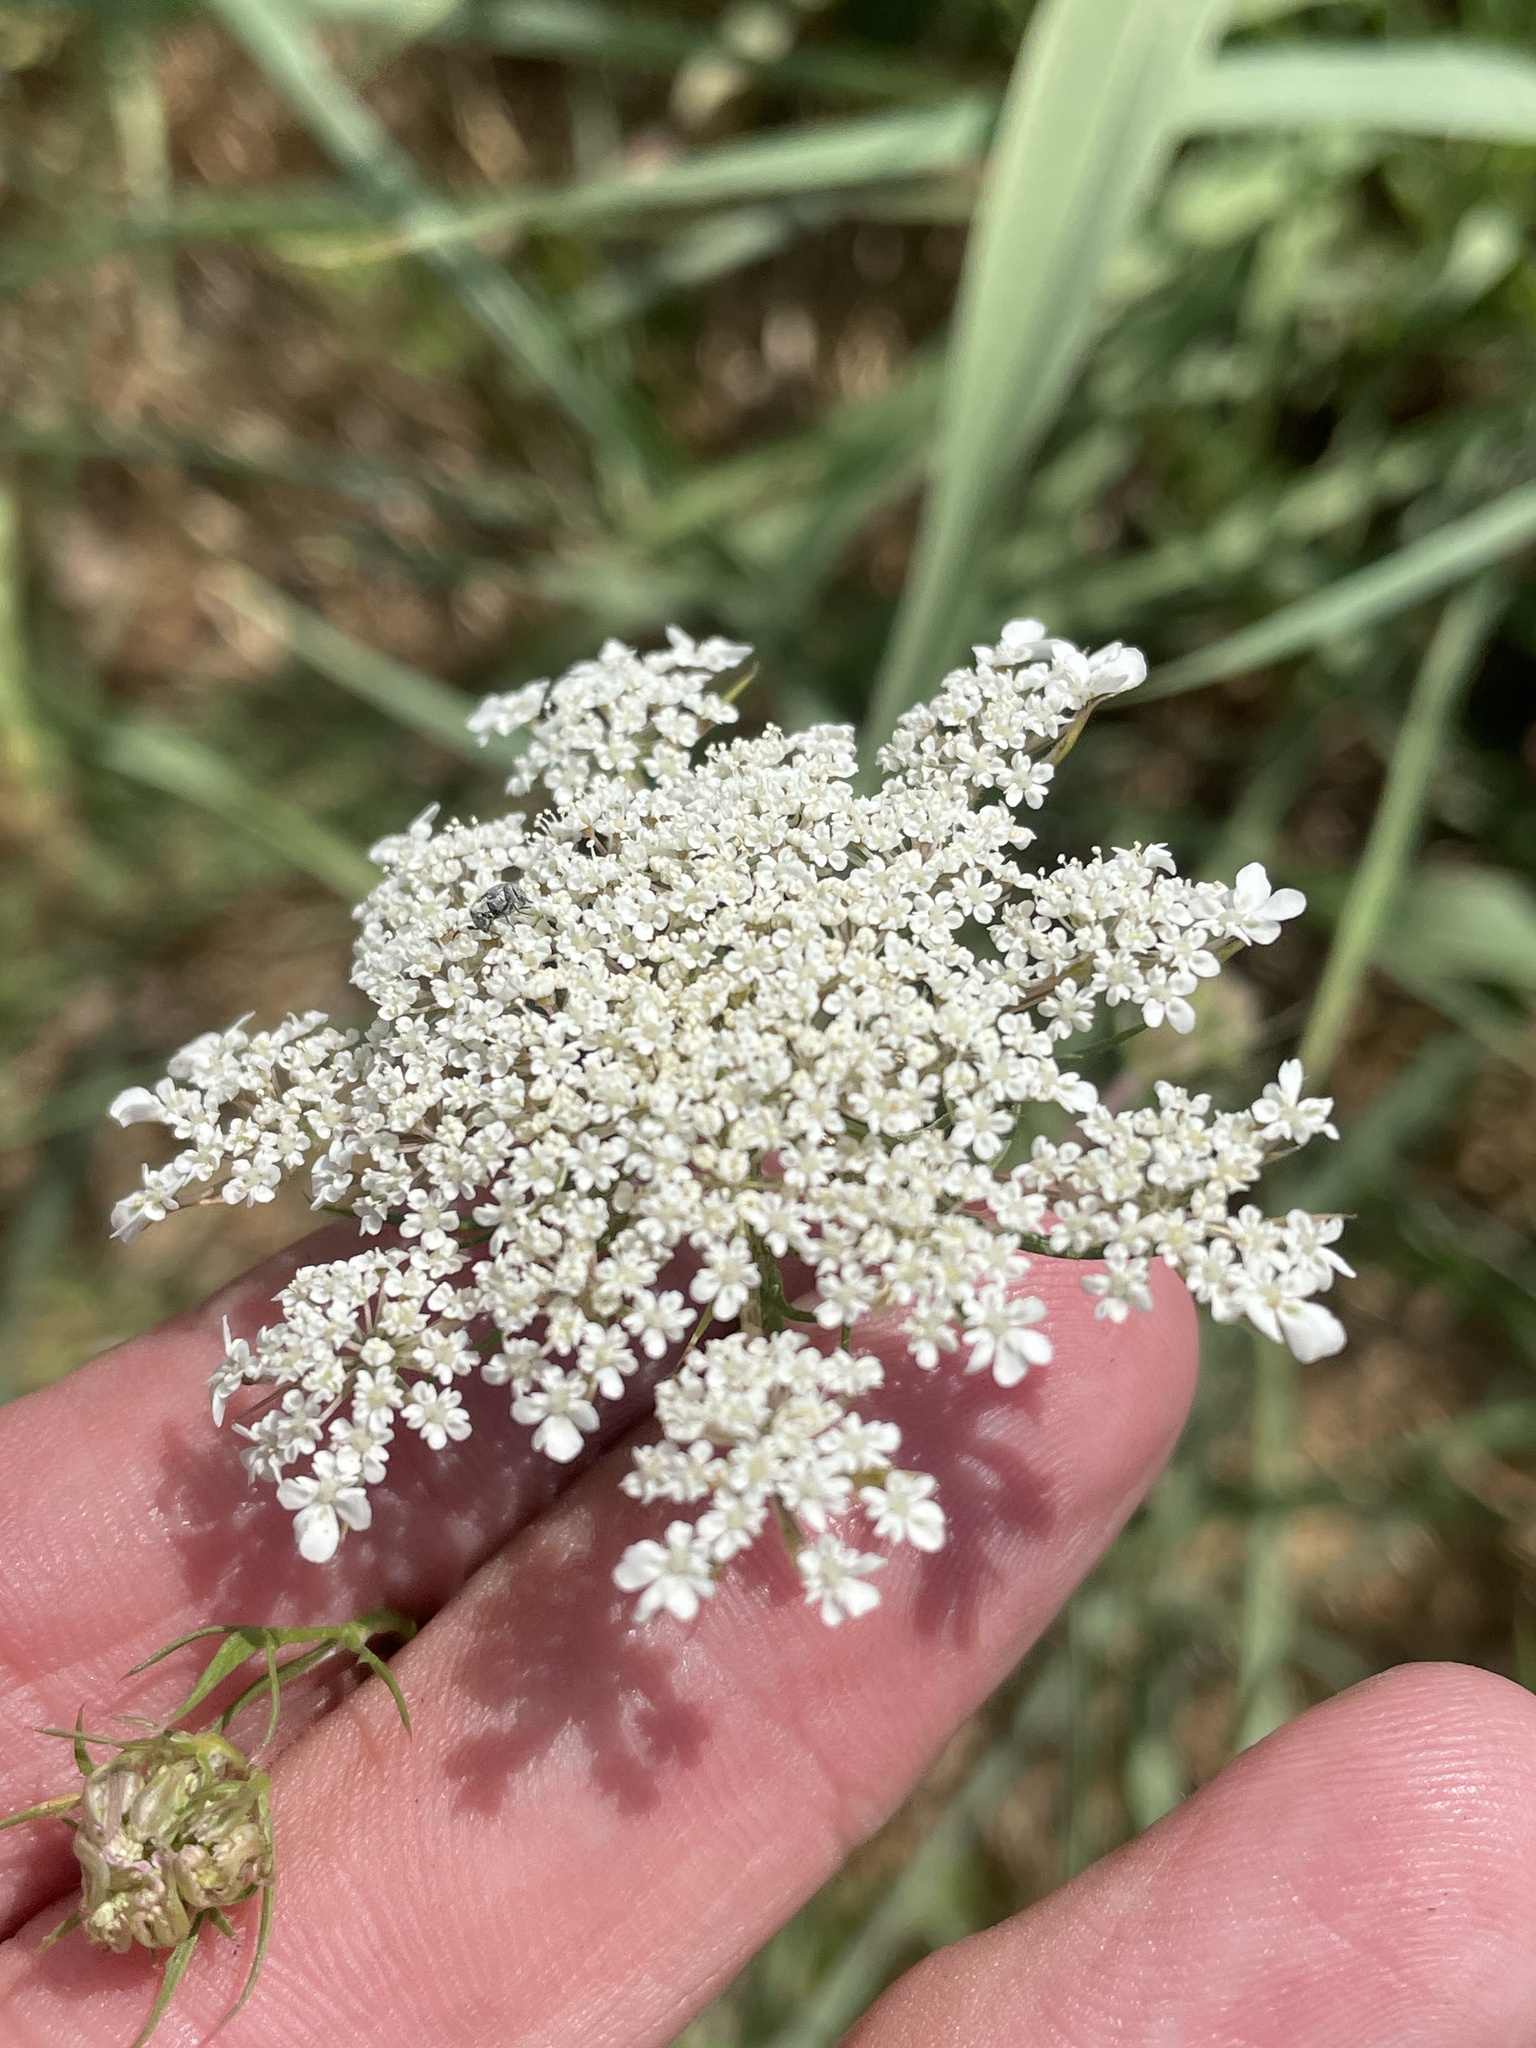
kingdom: Plantae
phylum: Tracheophyta
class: Magnoliopsida
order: Apiales
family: Apiaceae
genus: Daucus
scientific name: Daucus carota
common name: Wild carrot
